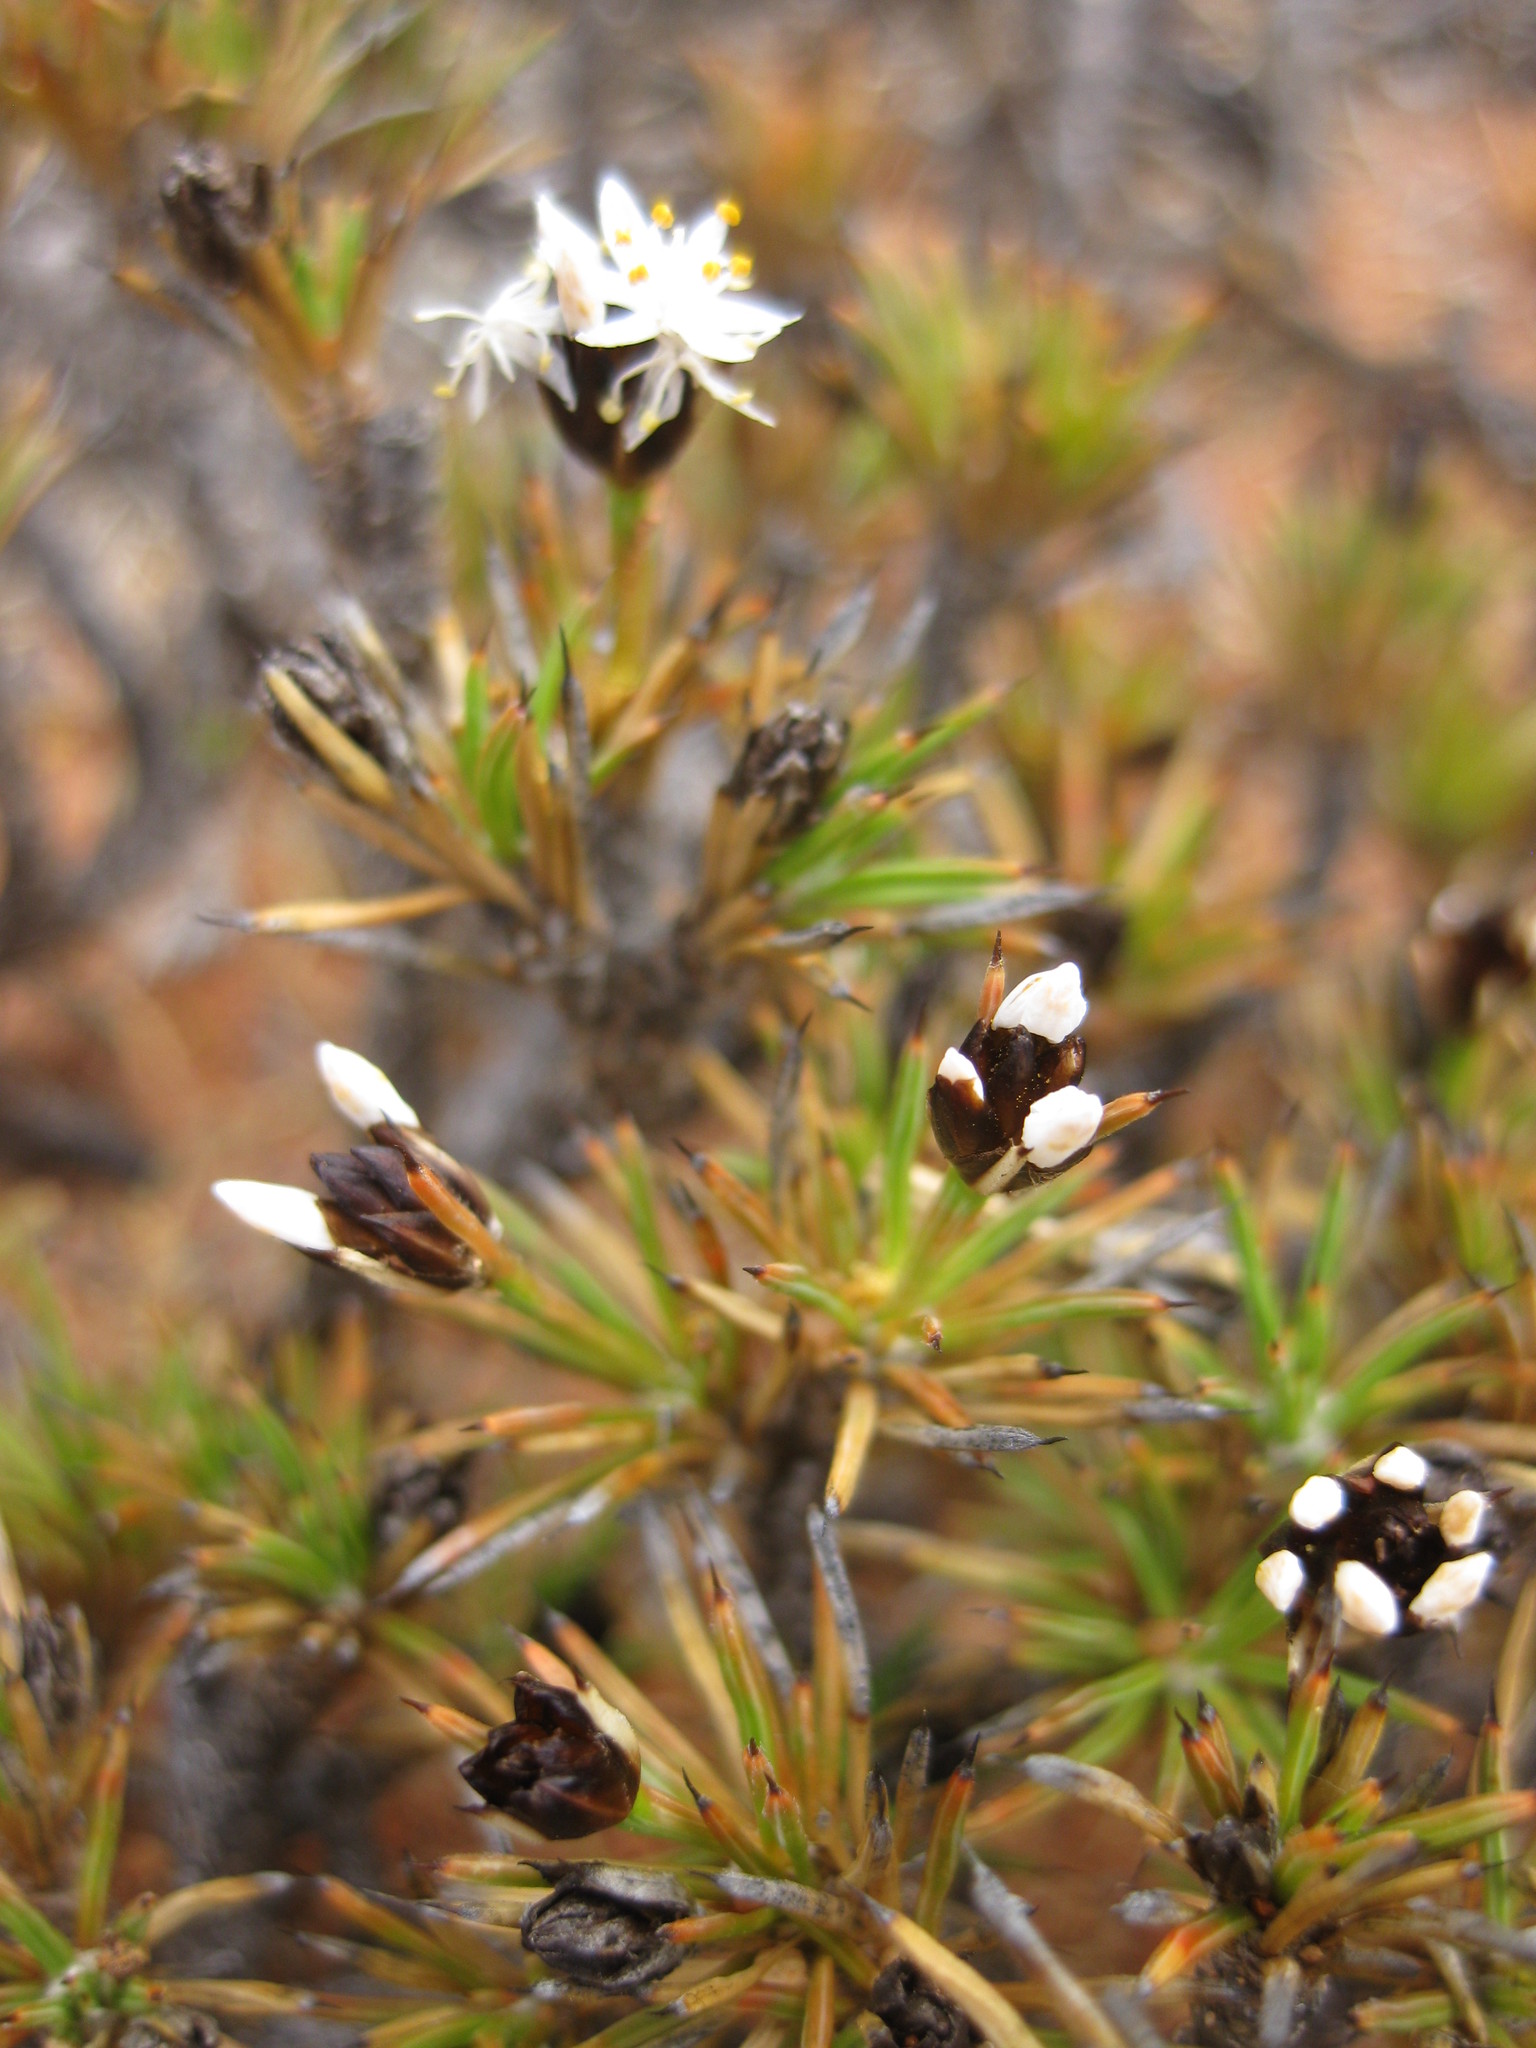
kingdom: Plantae
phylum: Tracheophyta
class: Liliopsida
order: Asparagales
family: Boryaceae
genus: Borya
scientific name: Borya constricta
